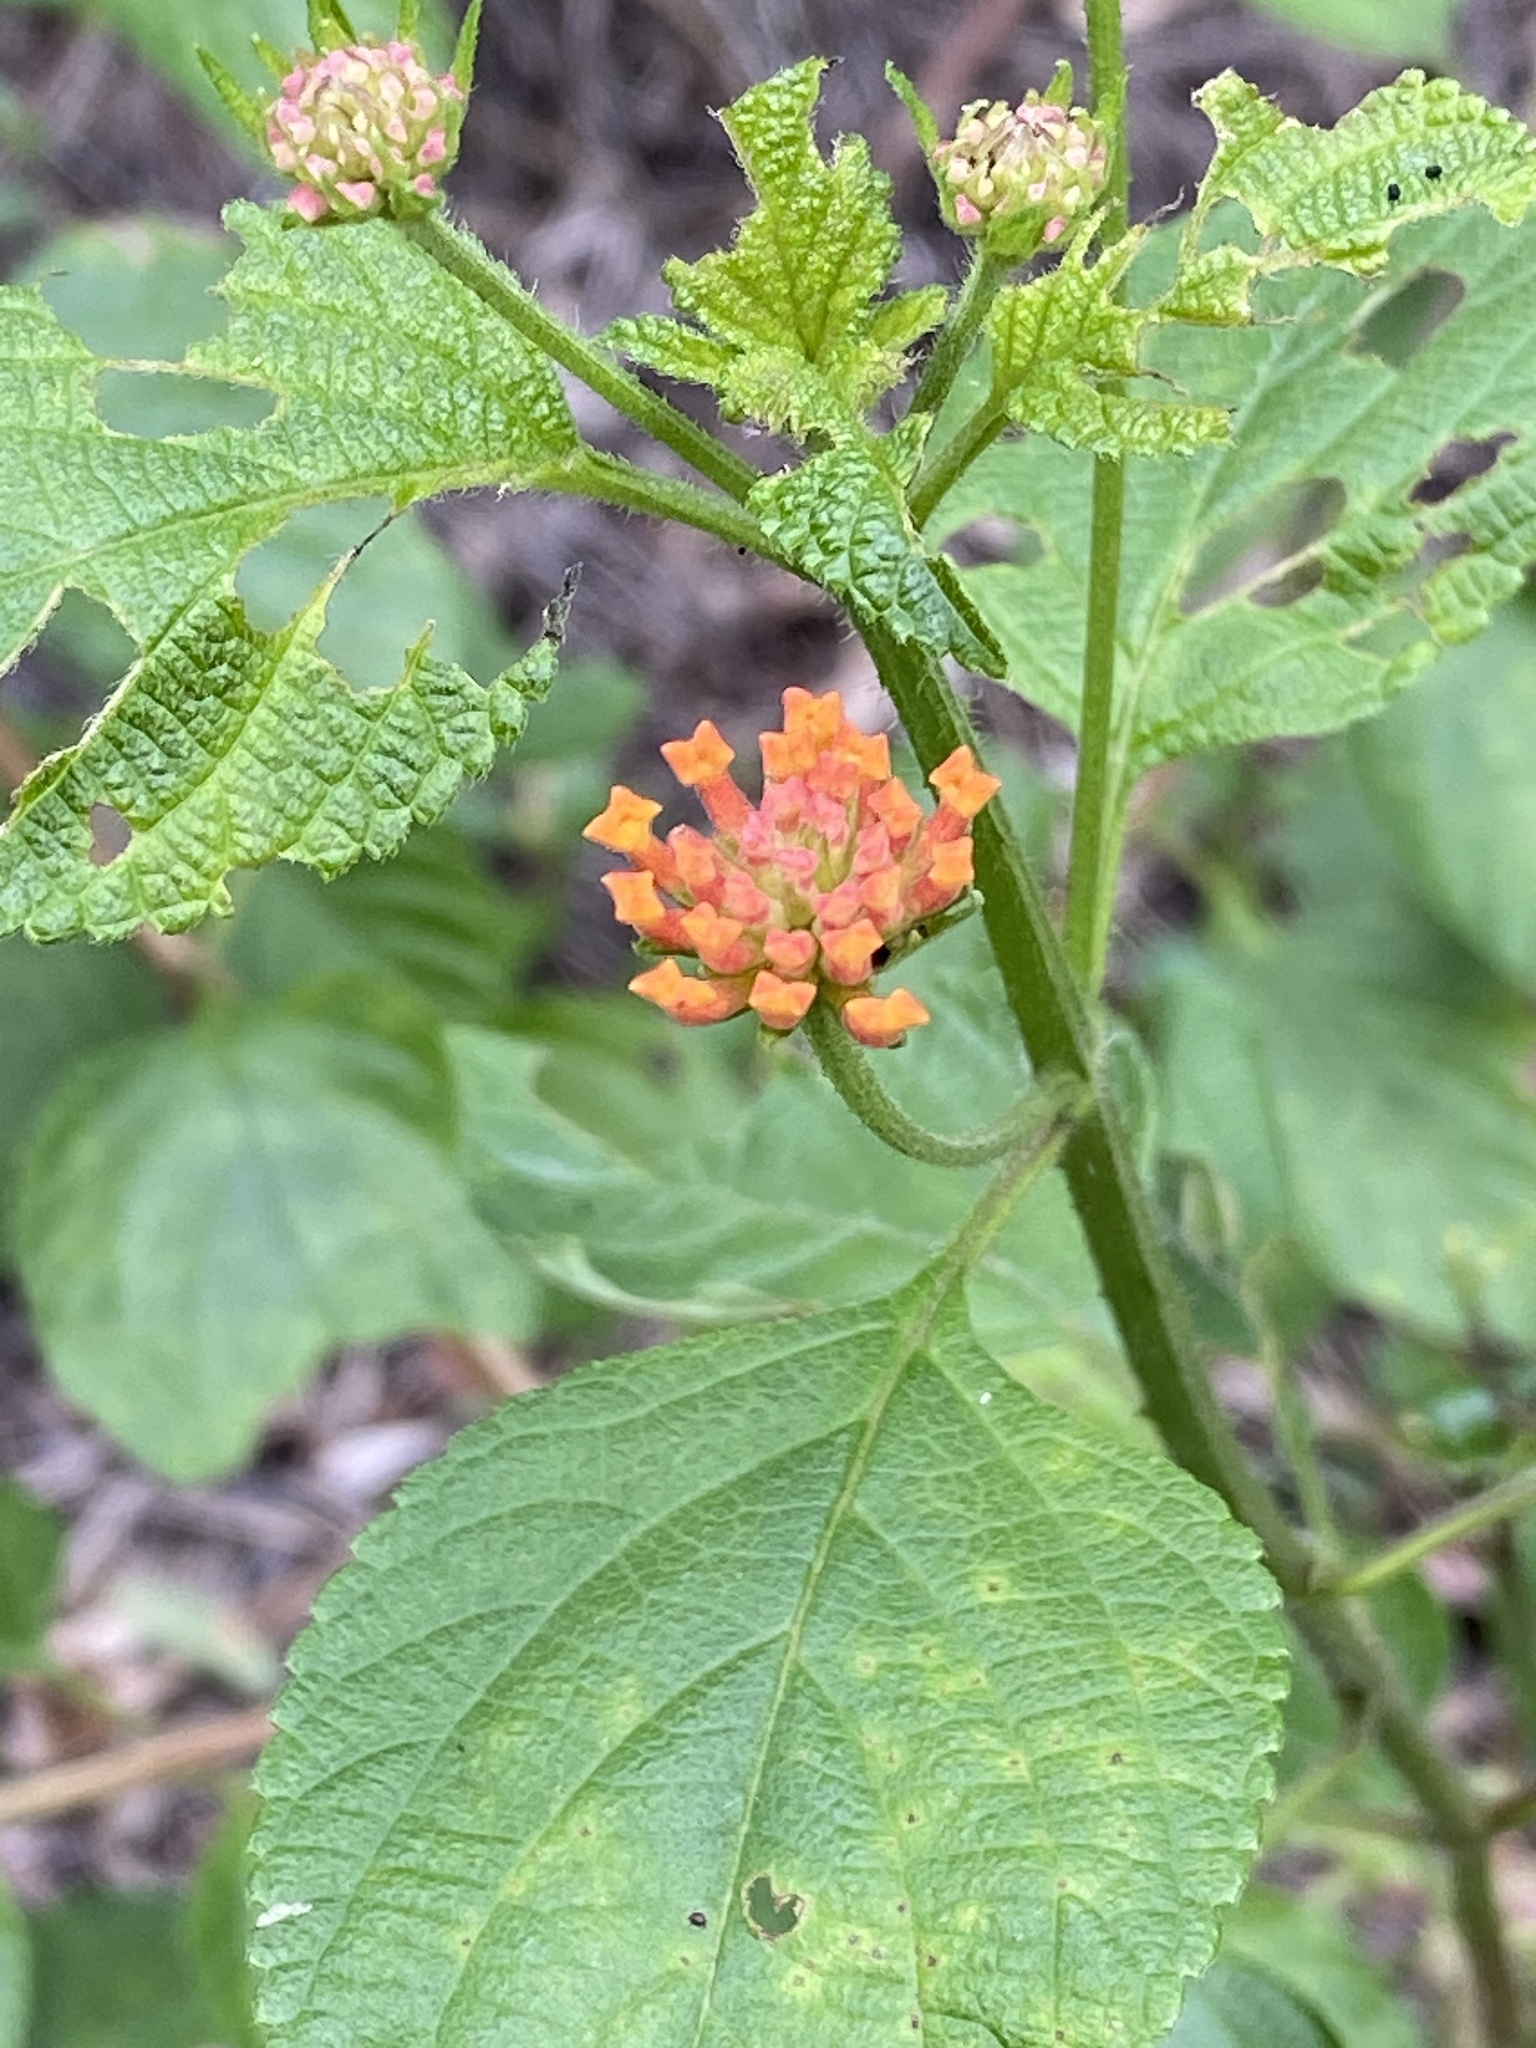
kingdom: Plantae
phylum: Tracheophyta
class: Magnoliopsida
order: Lamiales
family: Verbenaceae
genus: Lantana
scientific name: Lantana camara
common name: Lantana
